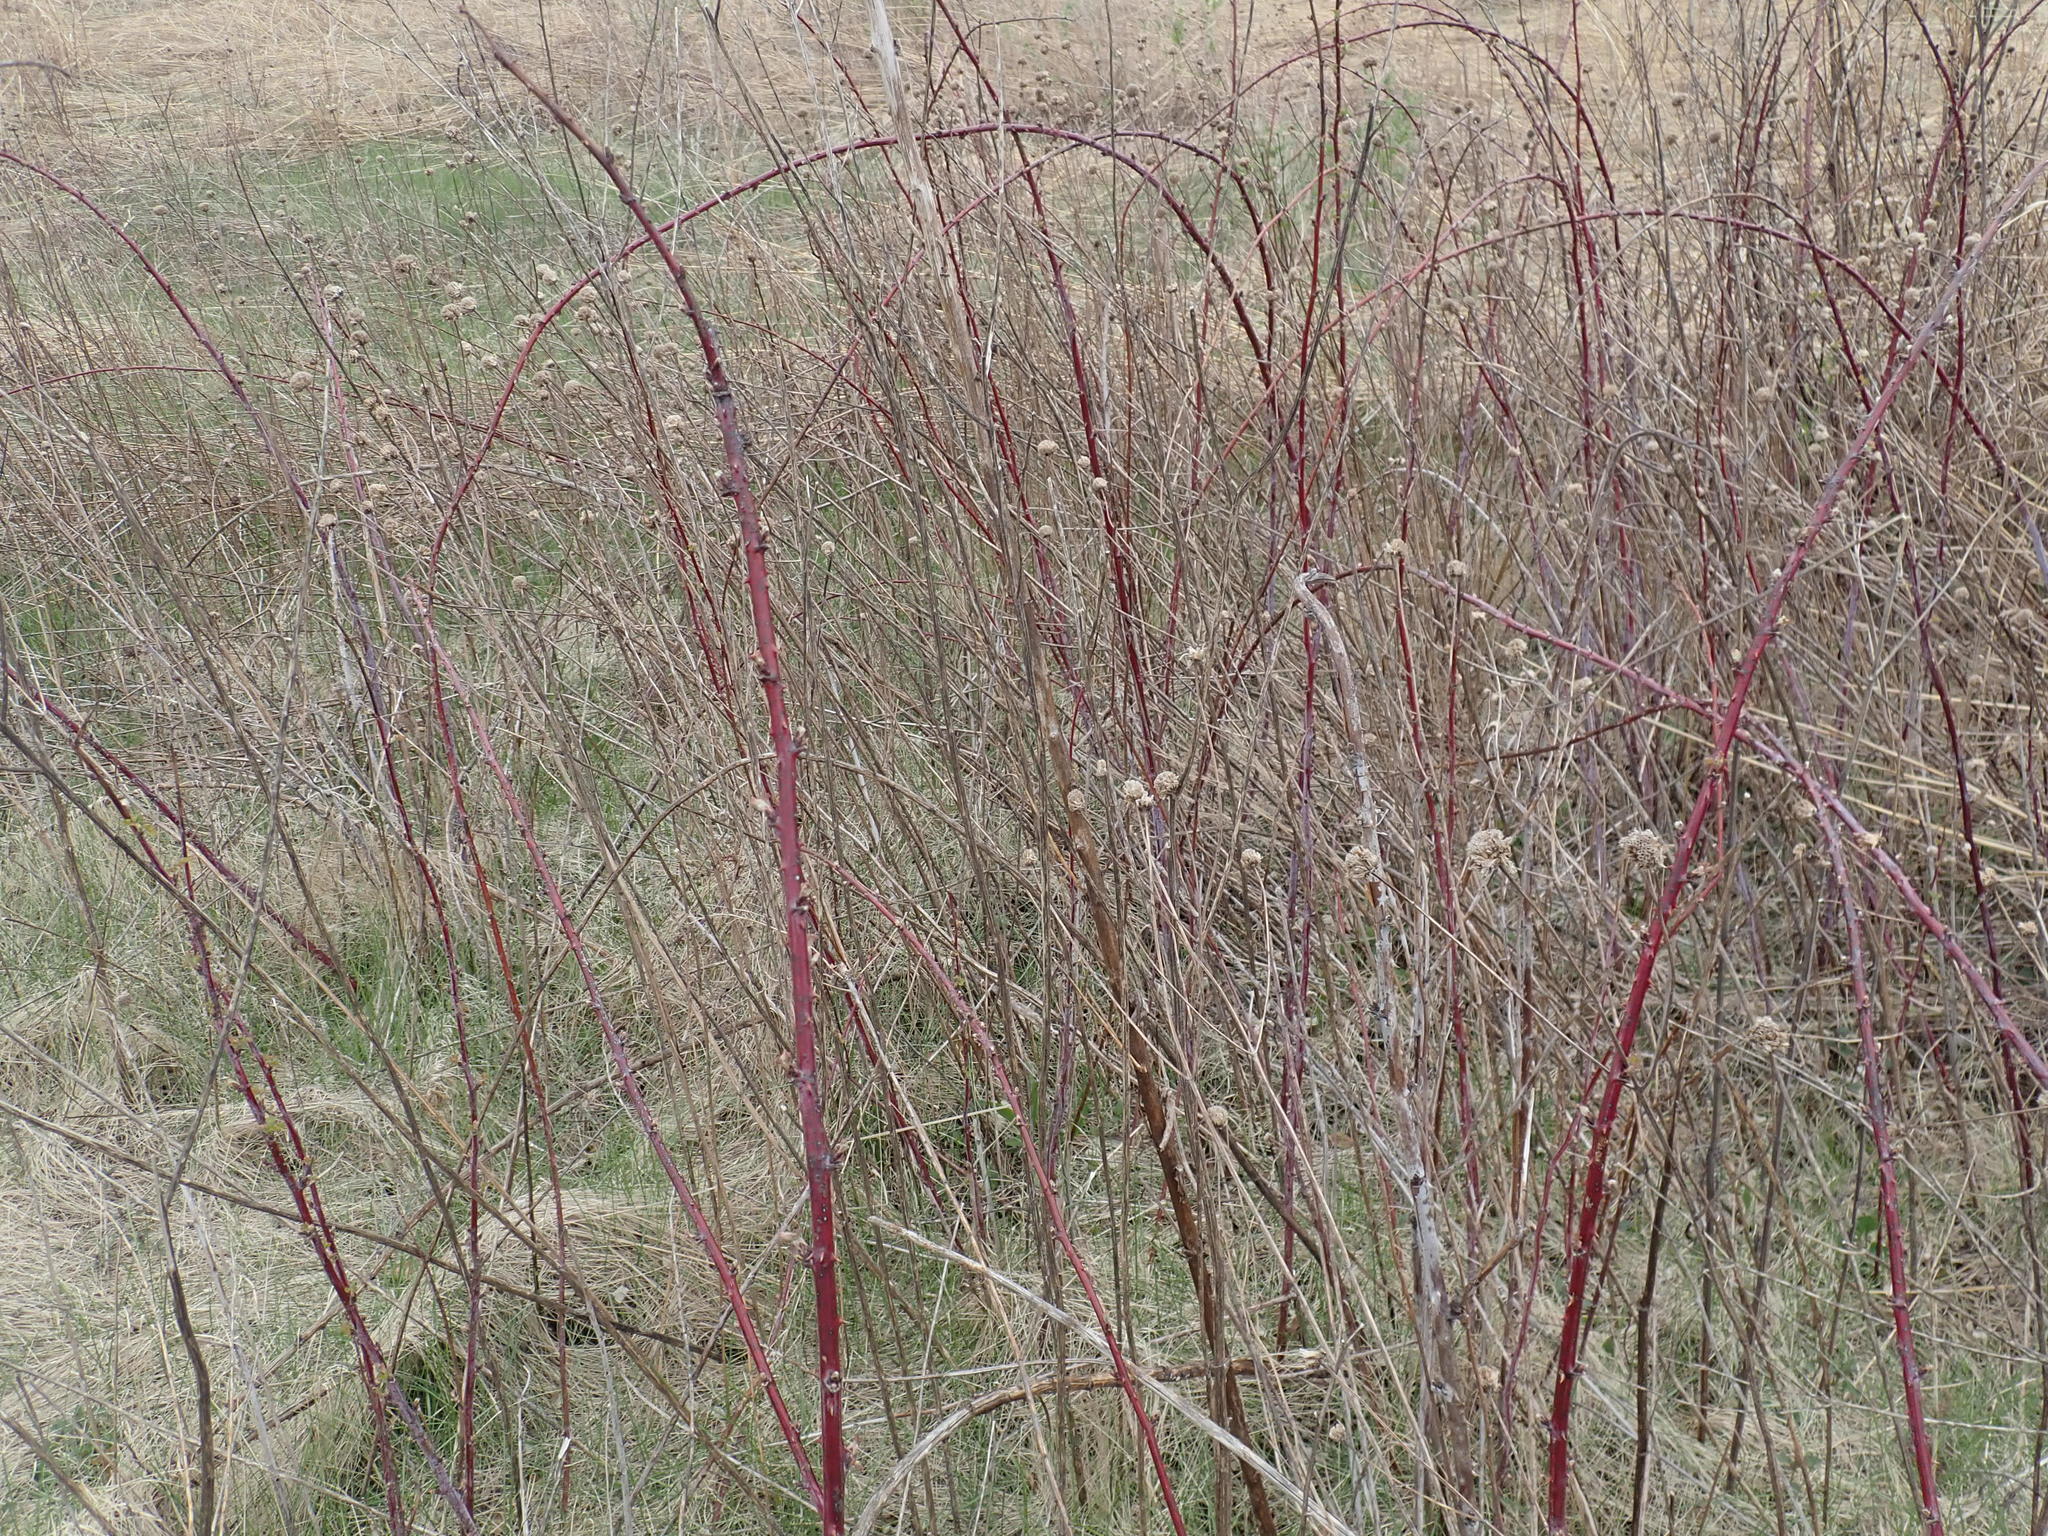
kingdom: Plantae
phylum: Tracheophyta
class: Magnoliopsida
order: Rosales
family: Rosaceae
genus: Rubus
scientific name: Rubus occidentalis
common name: Black raspberry
